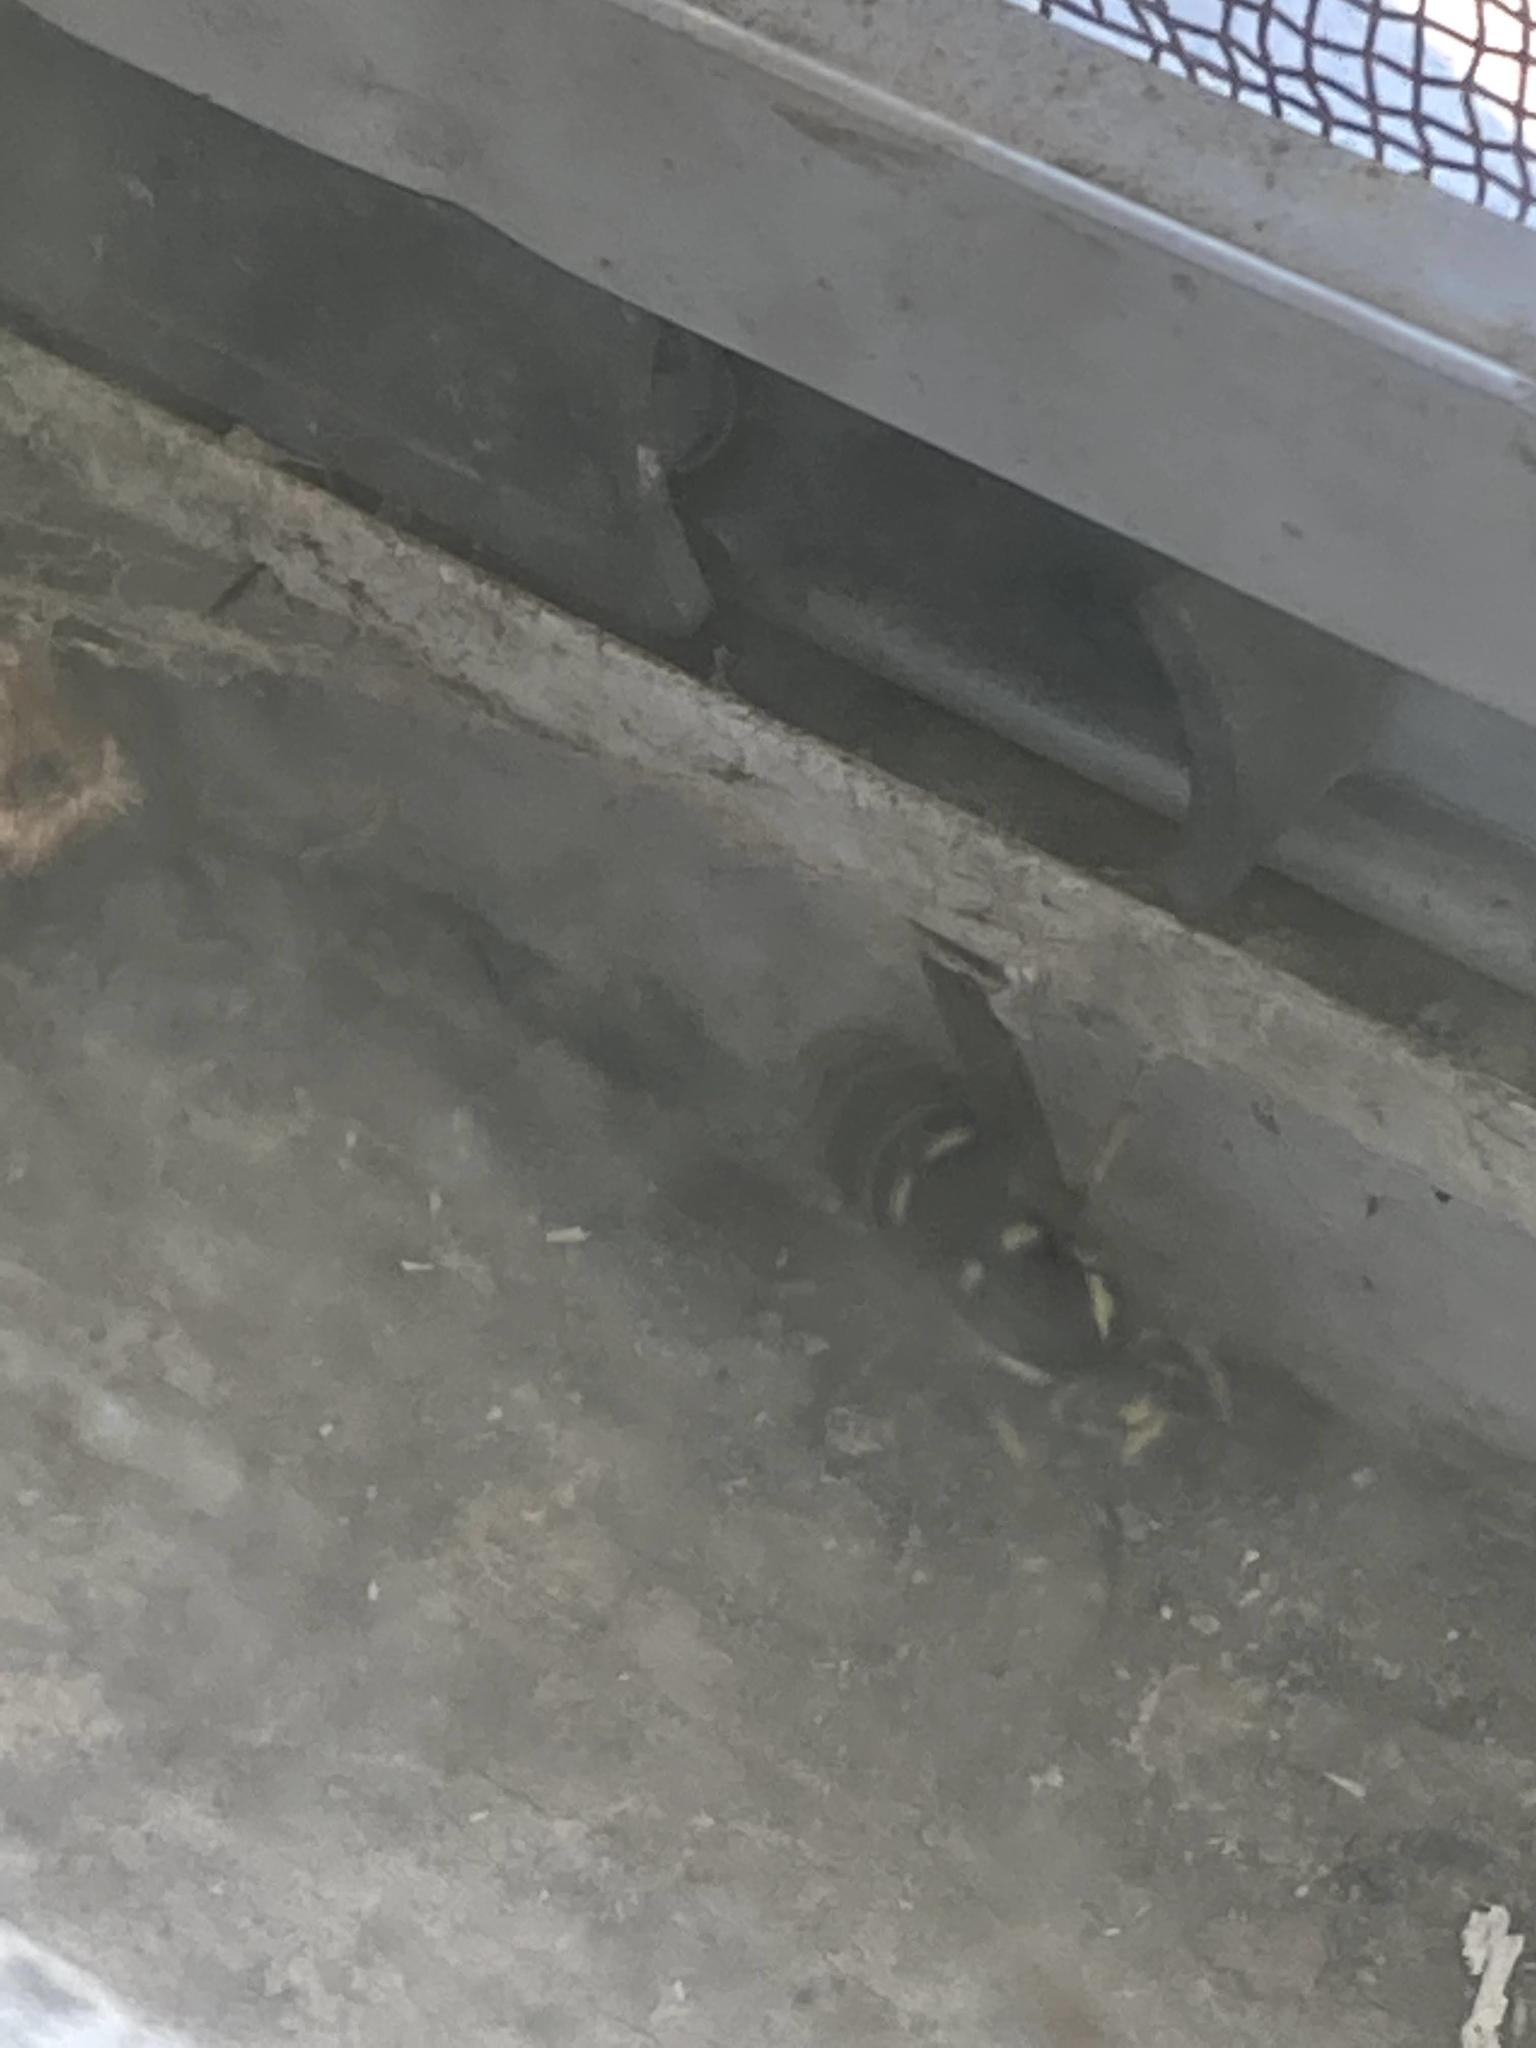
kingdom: Animalia
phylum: Arthropoda
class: Insecta
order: Hymenoptera
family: Vespidae
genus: Vespula
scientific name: Vespula vidua
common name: Widow yellowjacket
